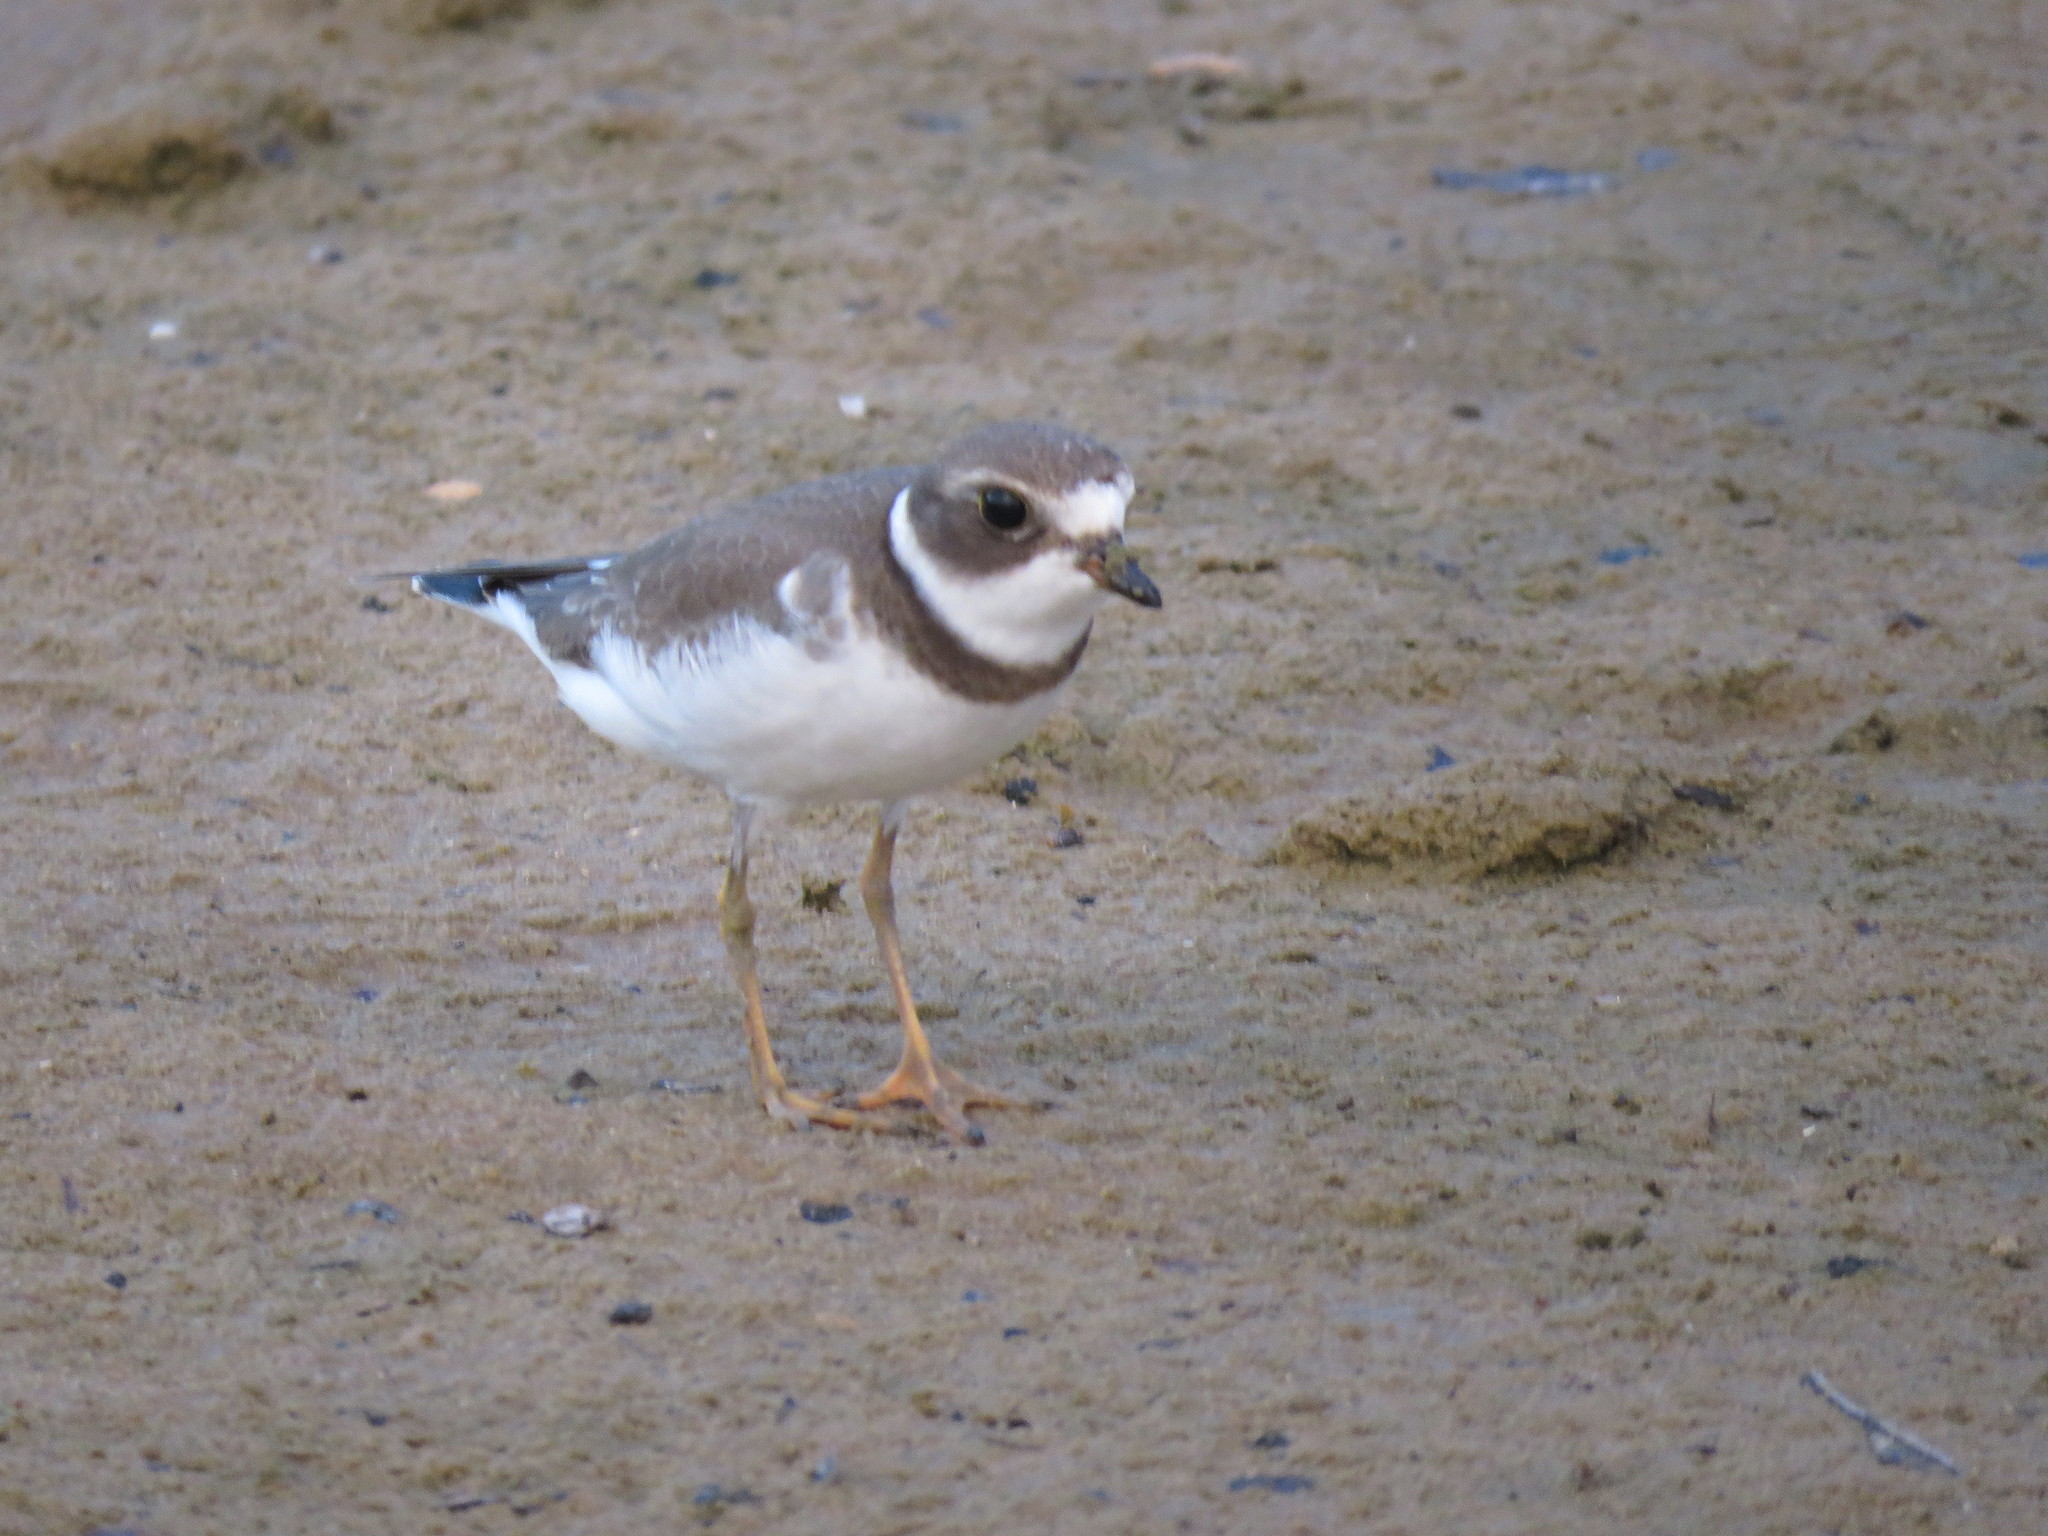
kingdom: Animalia
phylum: Chordata
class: Aves
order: Charadriiformes
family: Charadriidae
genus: Charadrius
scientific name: Charadrius semipalmatus
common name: Semipalmated plover
